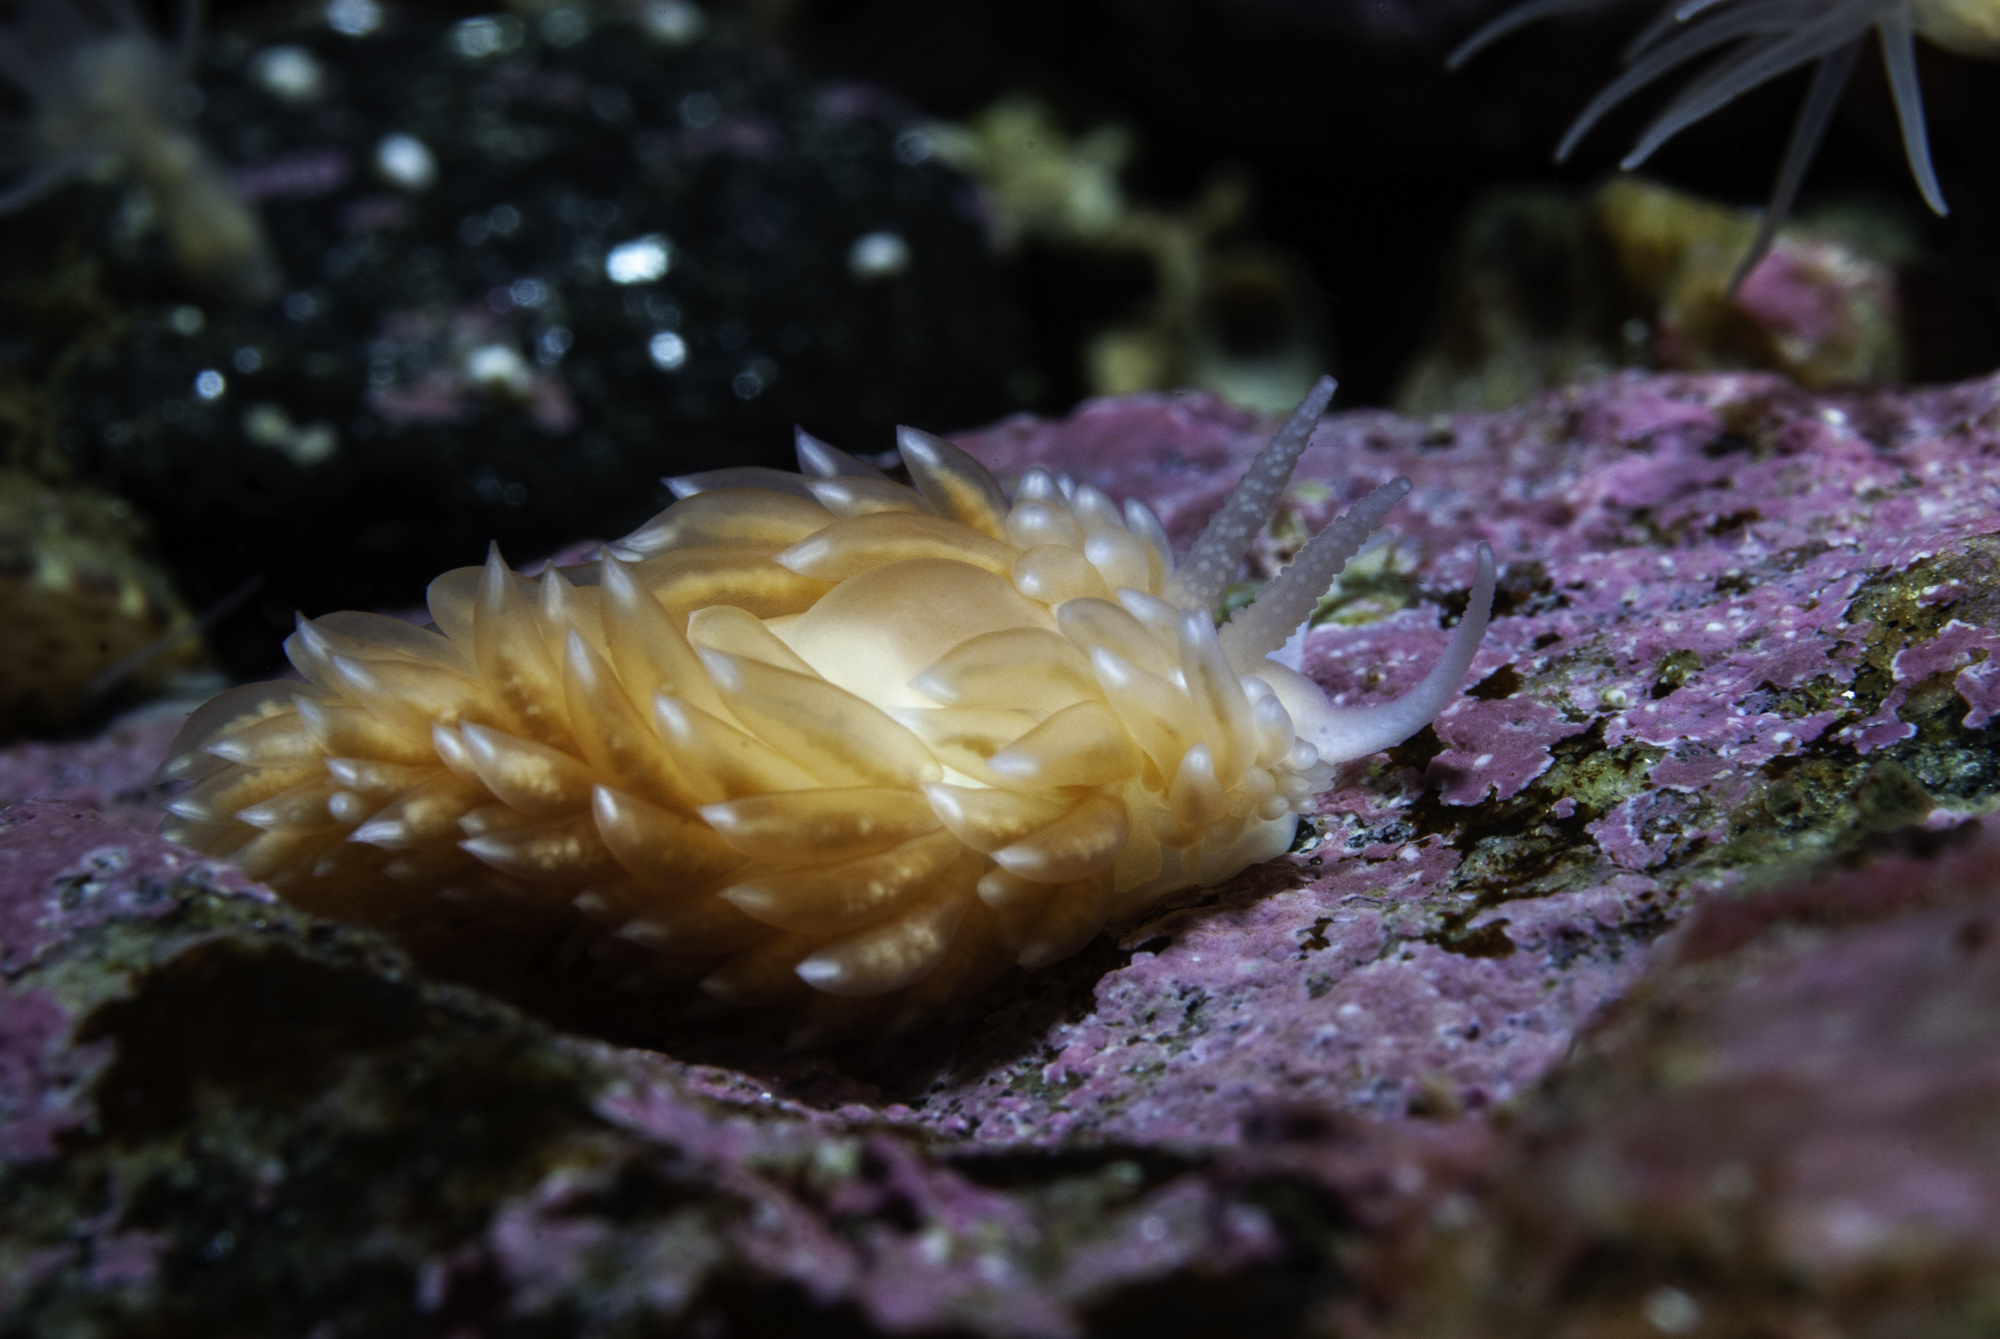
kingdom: Animalia
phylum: Mollusca
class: Gastropoda
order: Nudibranchia
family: Aeolidiidae
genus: Berghia
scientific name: Berghia norvegica
